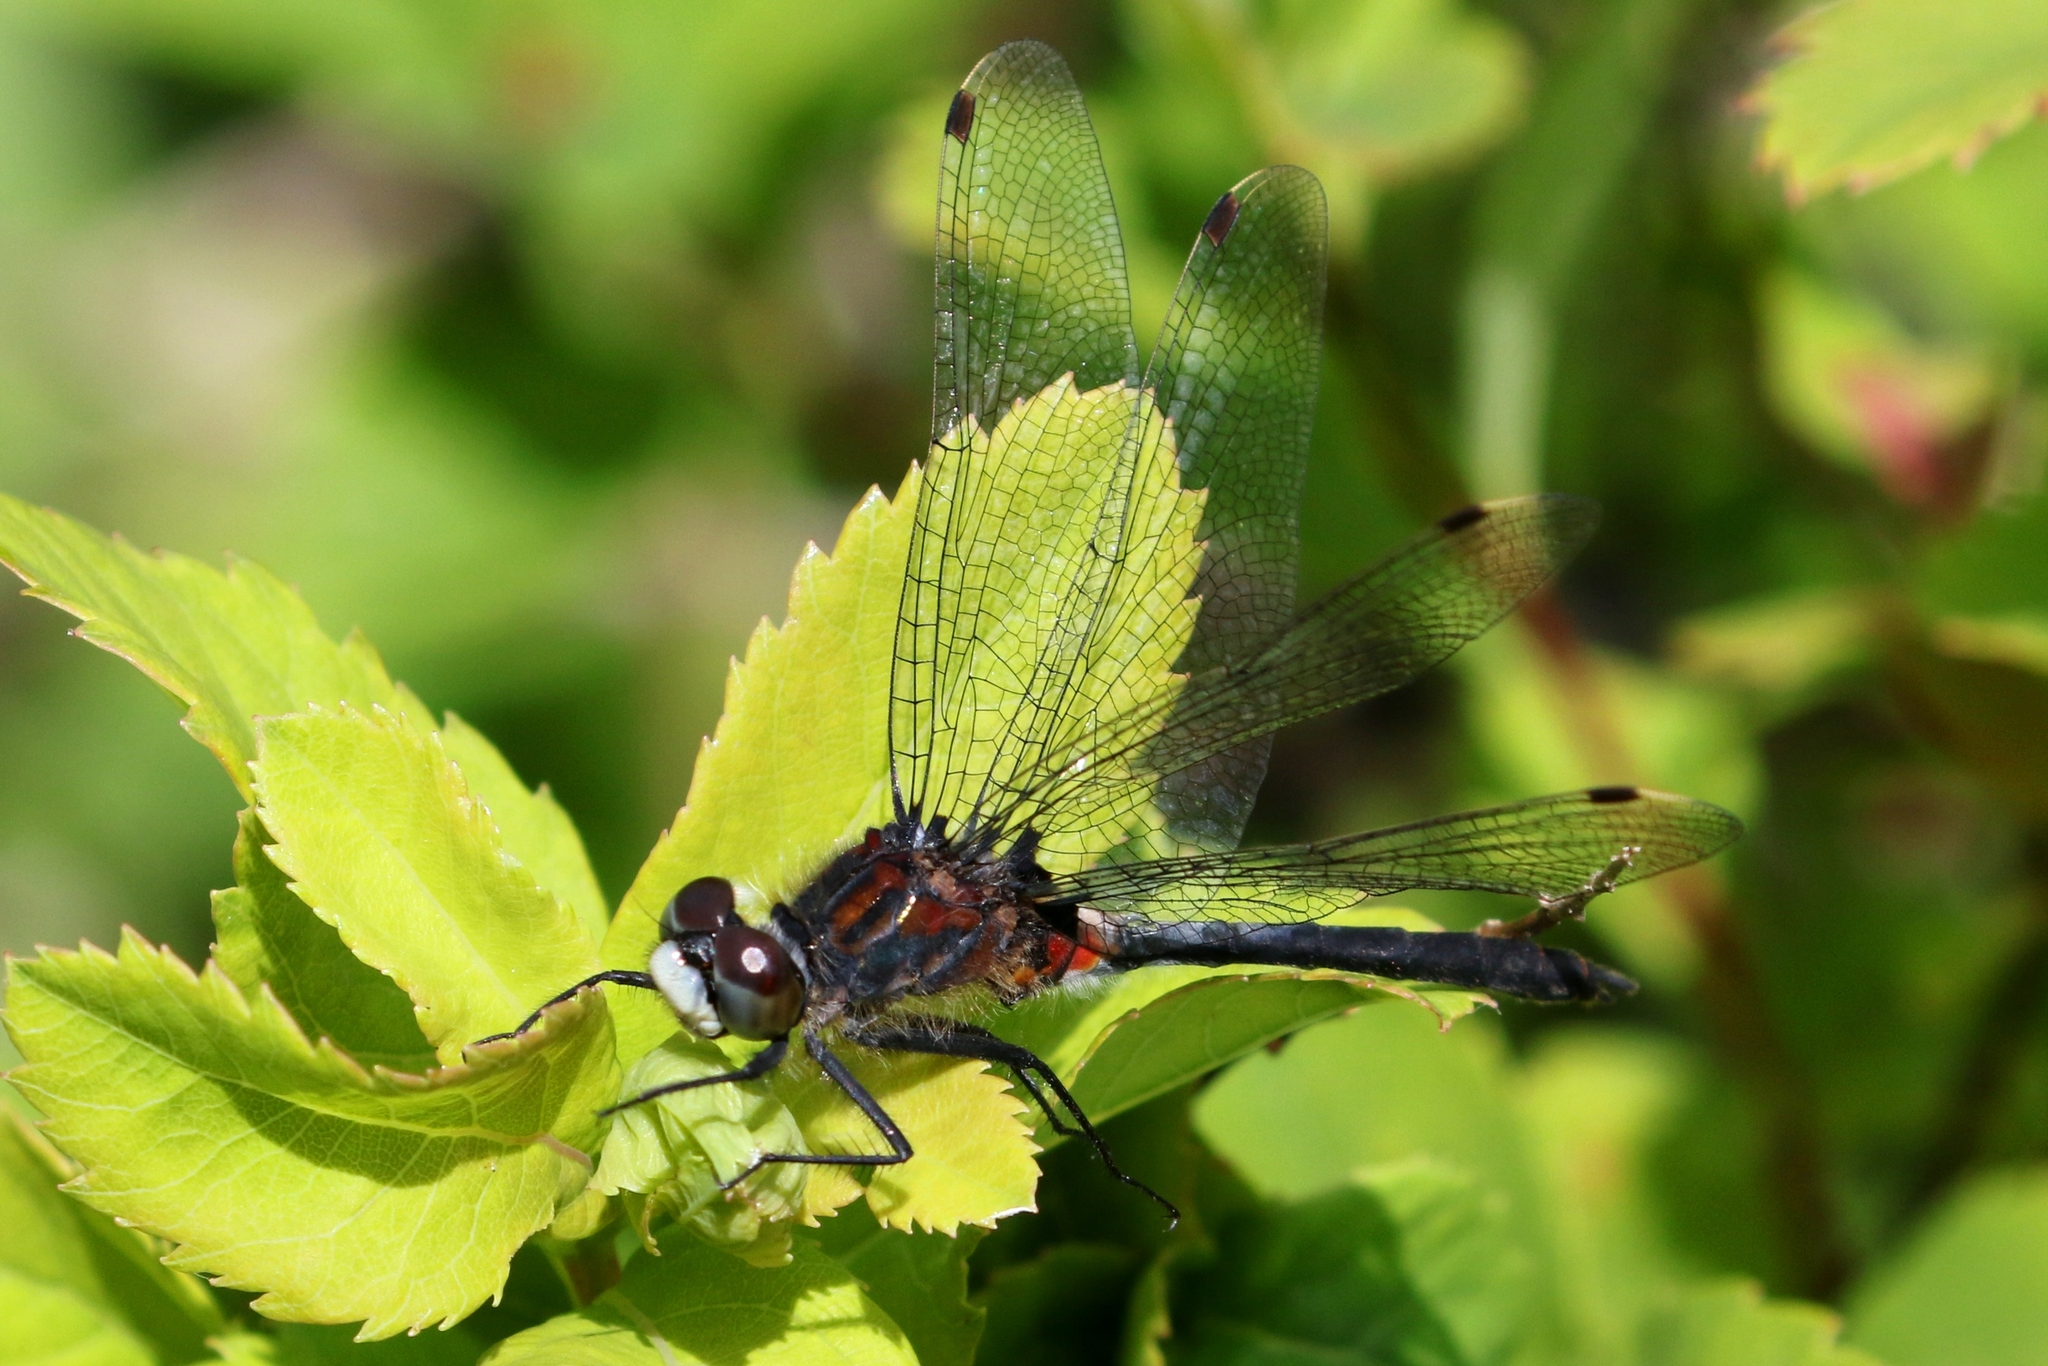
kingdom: Animalia
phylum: Arthropoda
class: Insecta
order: Odonata
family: Libellulidae
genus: Leucorrhinia
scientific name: Leucorrhinia proxima
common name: Belted whiteface
